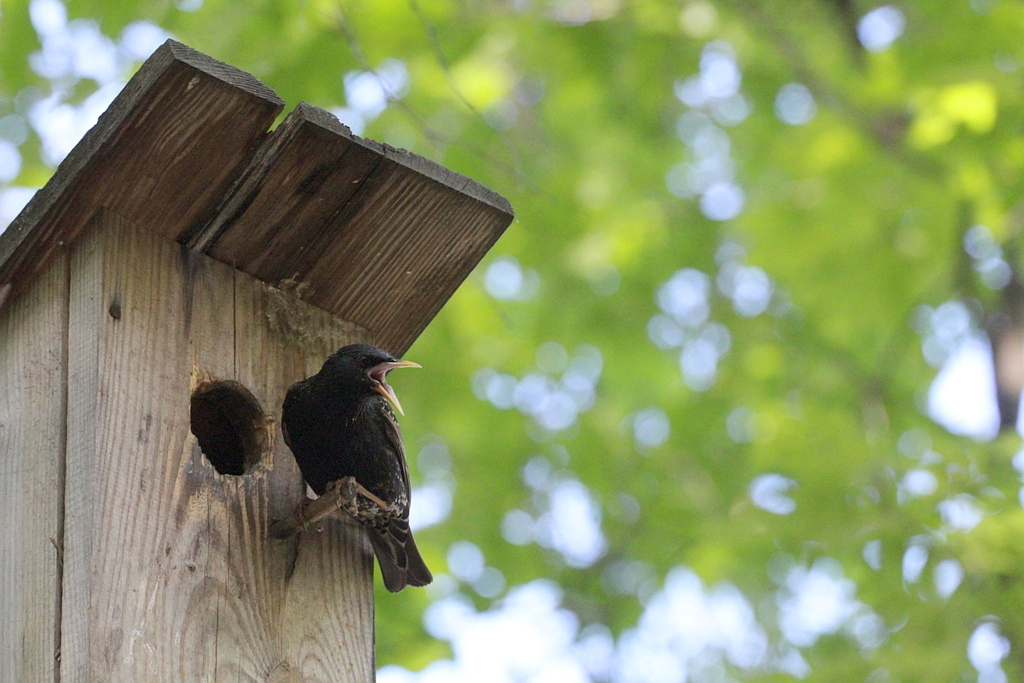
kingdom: Animalia
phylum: Chordata
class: Aves
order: Passeriformes
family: Sturnidae
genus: Sturnus
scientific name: Sturnus vulgaris
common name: Common starling
